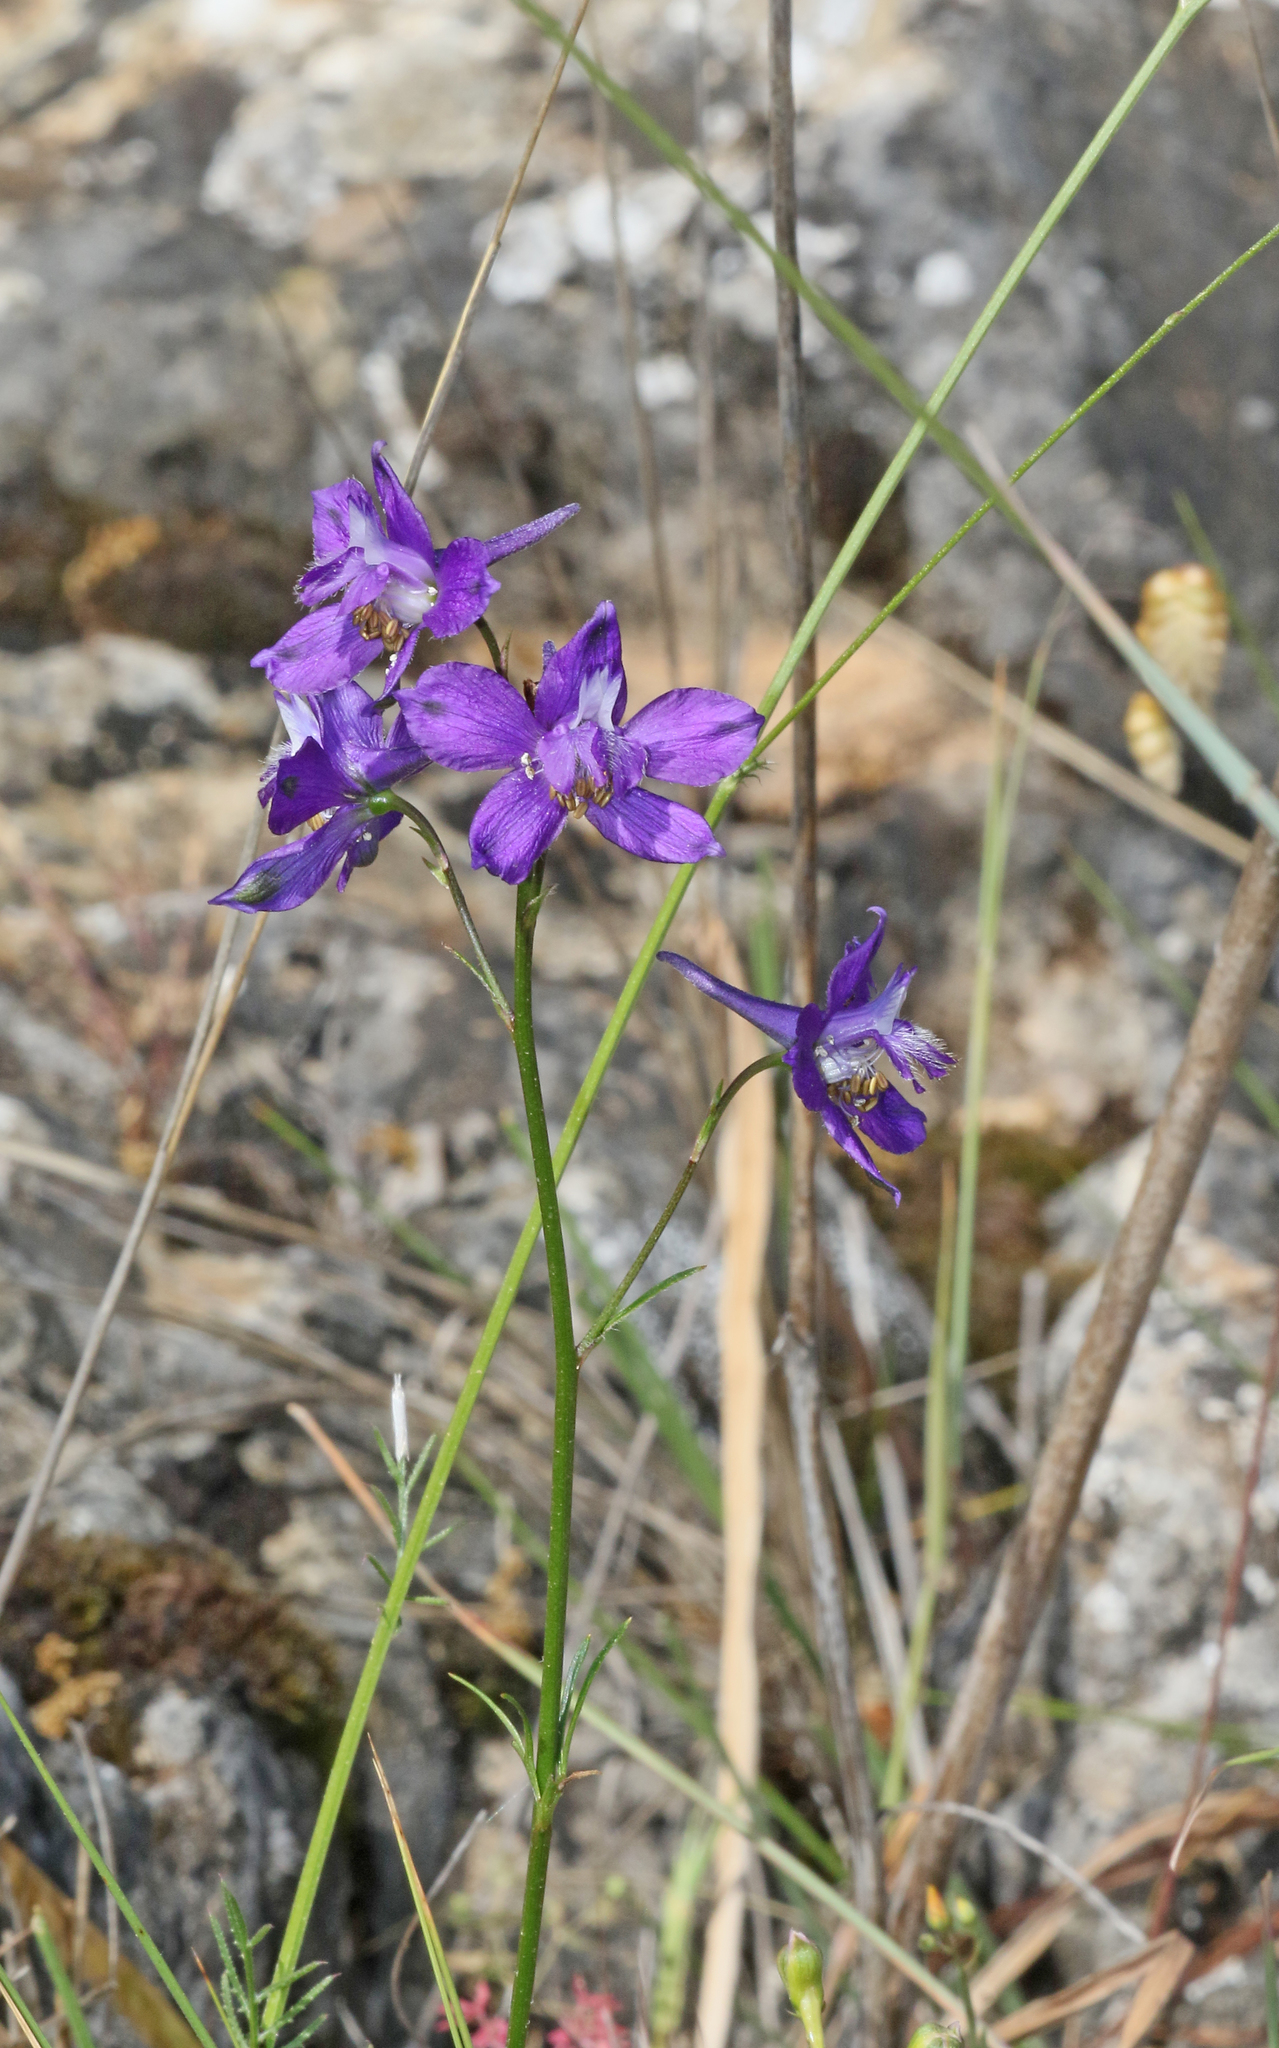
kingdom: Plantae
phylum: Tracheophyta
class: Magnoliopsida
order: Ranunculales
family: Ranunculaceae
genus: Delphinium
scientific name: Delphinium pentagynum
